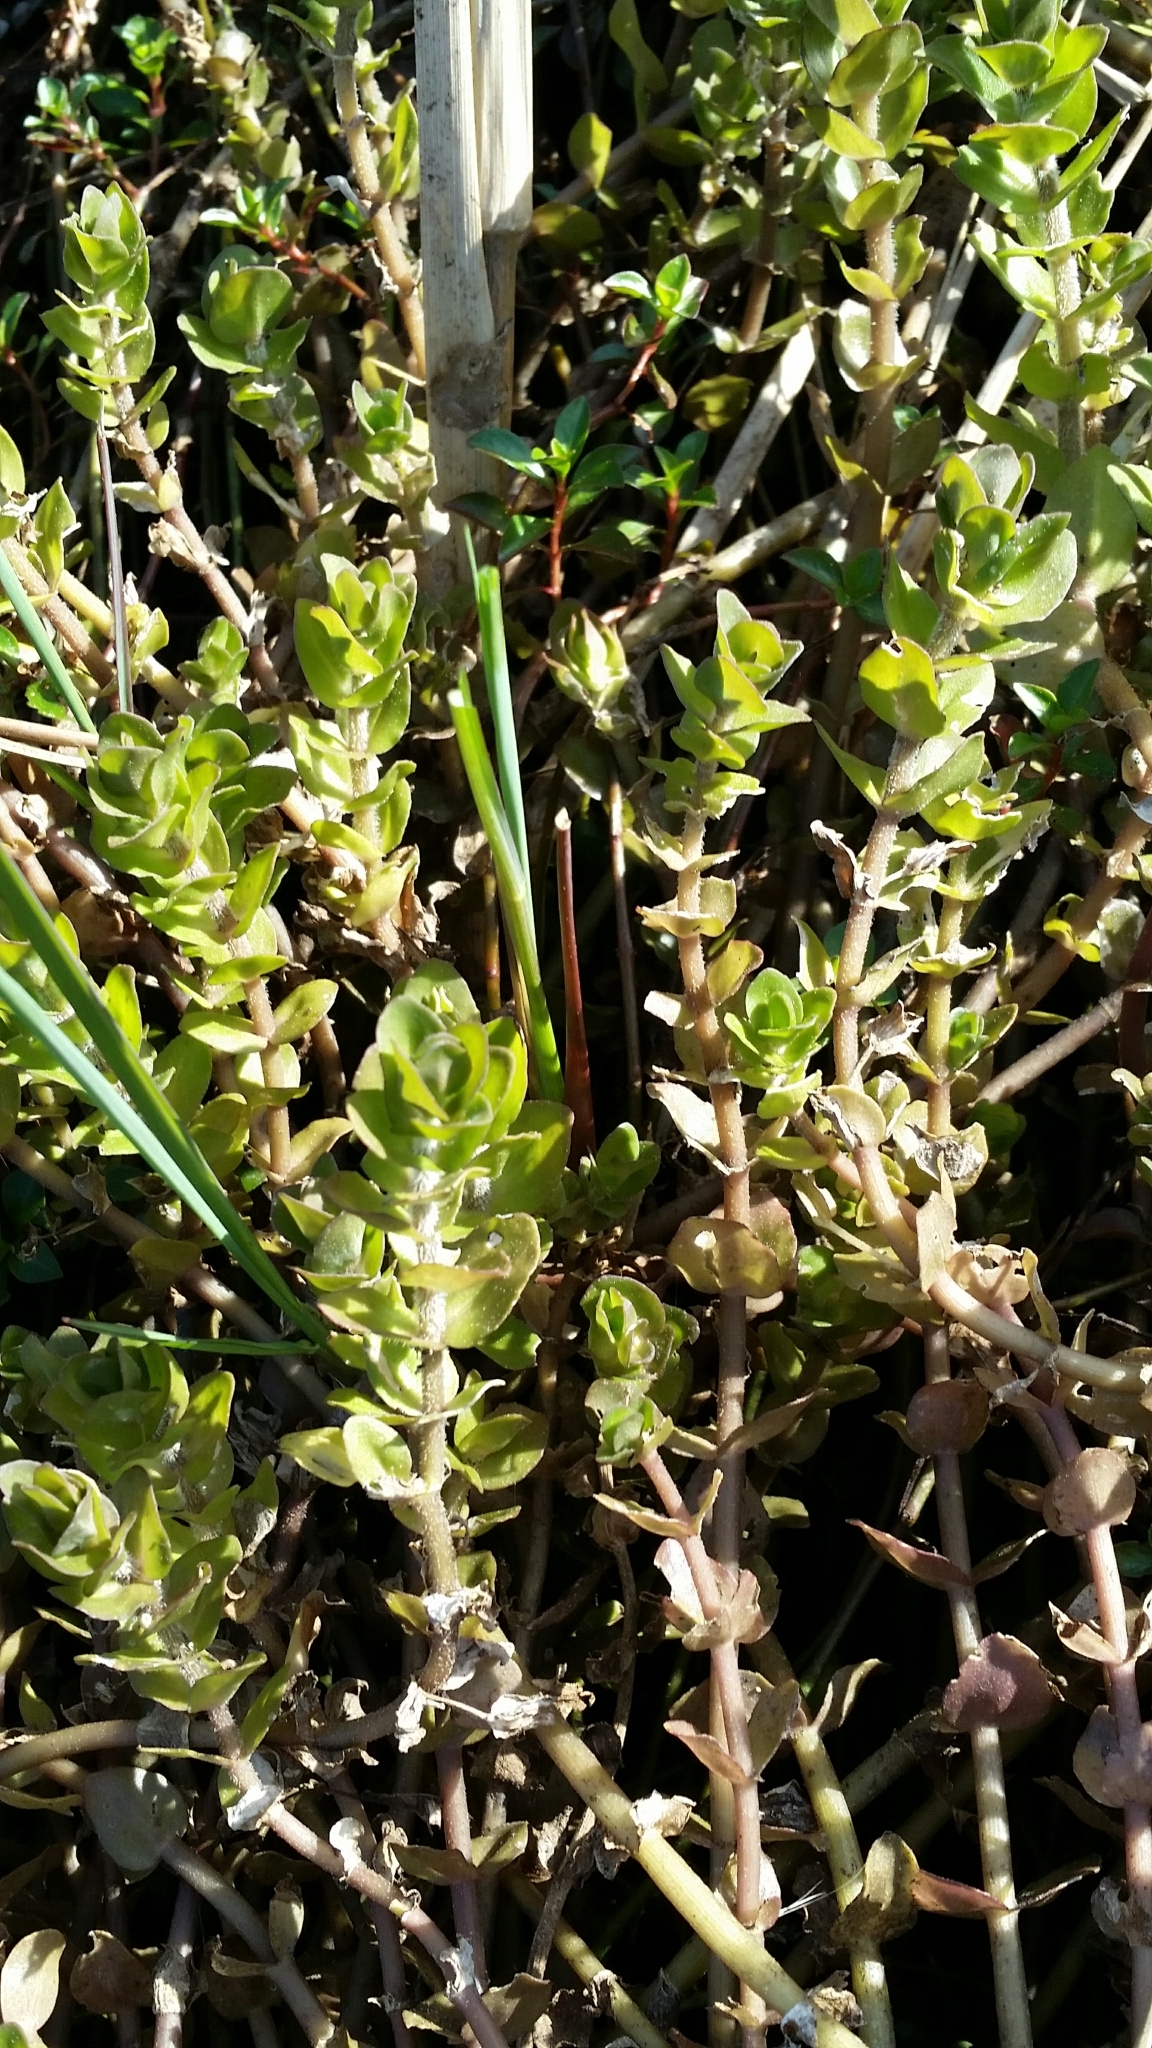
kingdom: Plantae
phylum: Tracheophyta
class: Magnoliopsida
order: Lamiales
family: Plantaginaceae
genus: Bacopa
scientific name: Bacopa caroliniana
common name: Lemon bacopa
